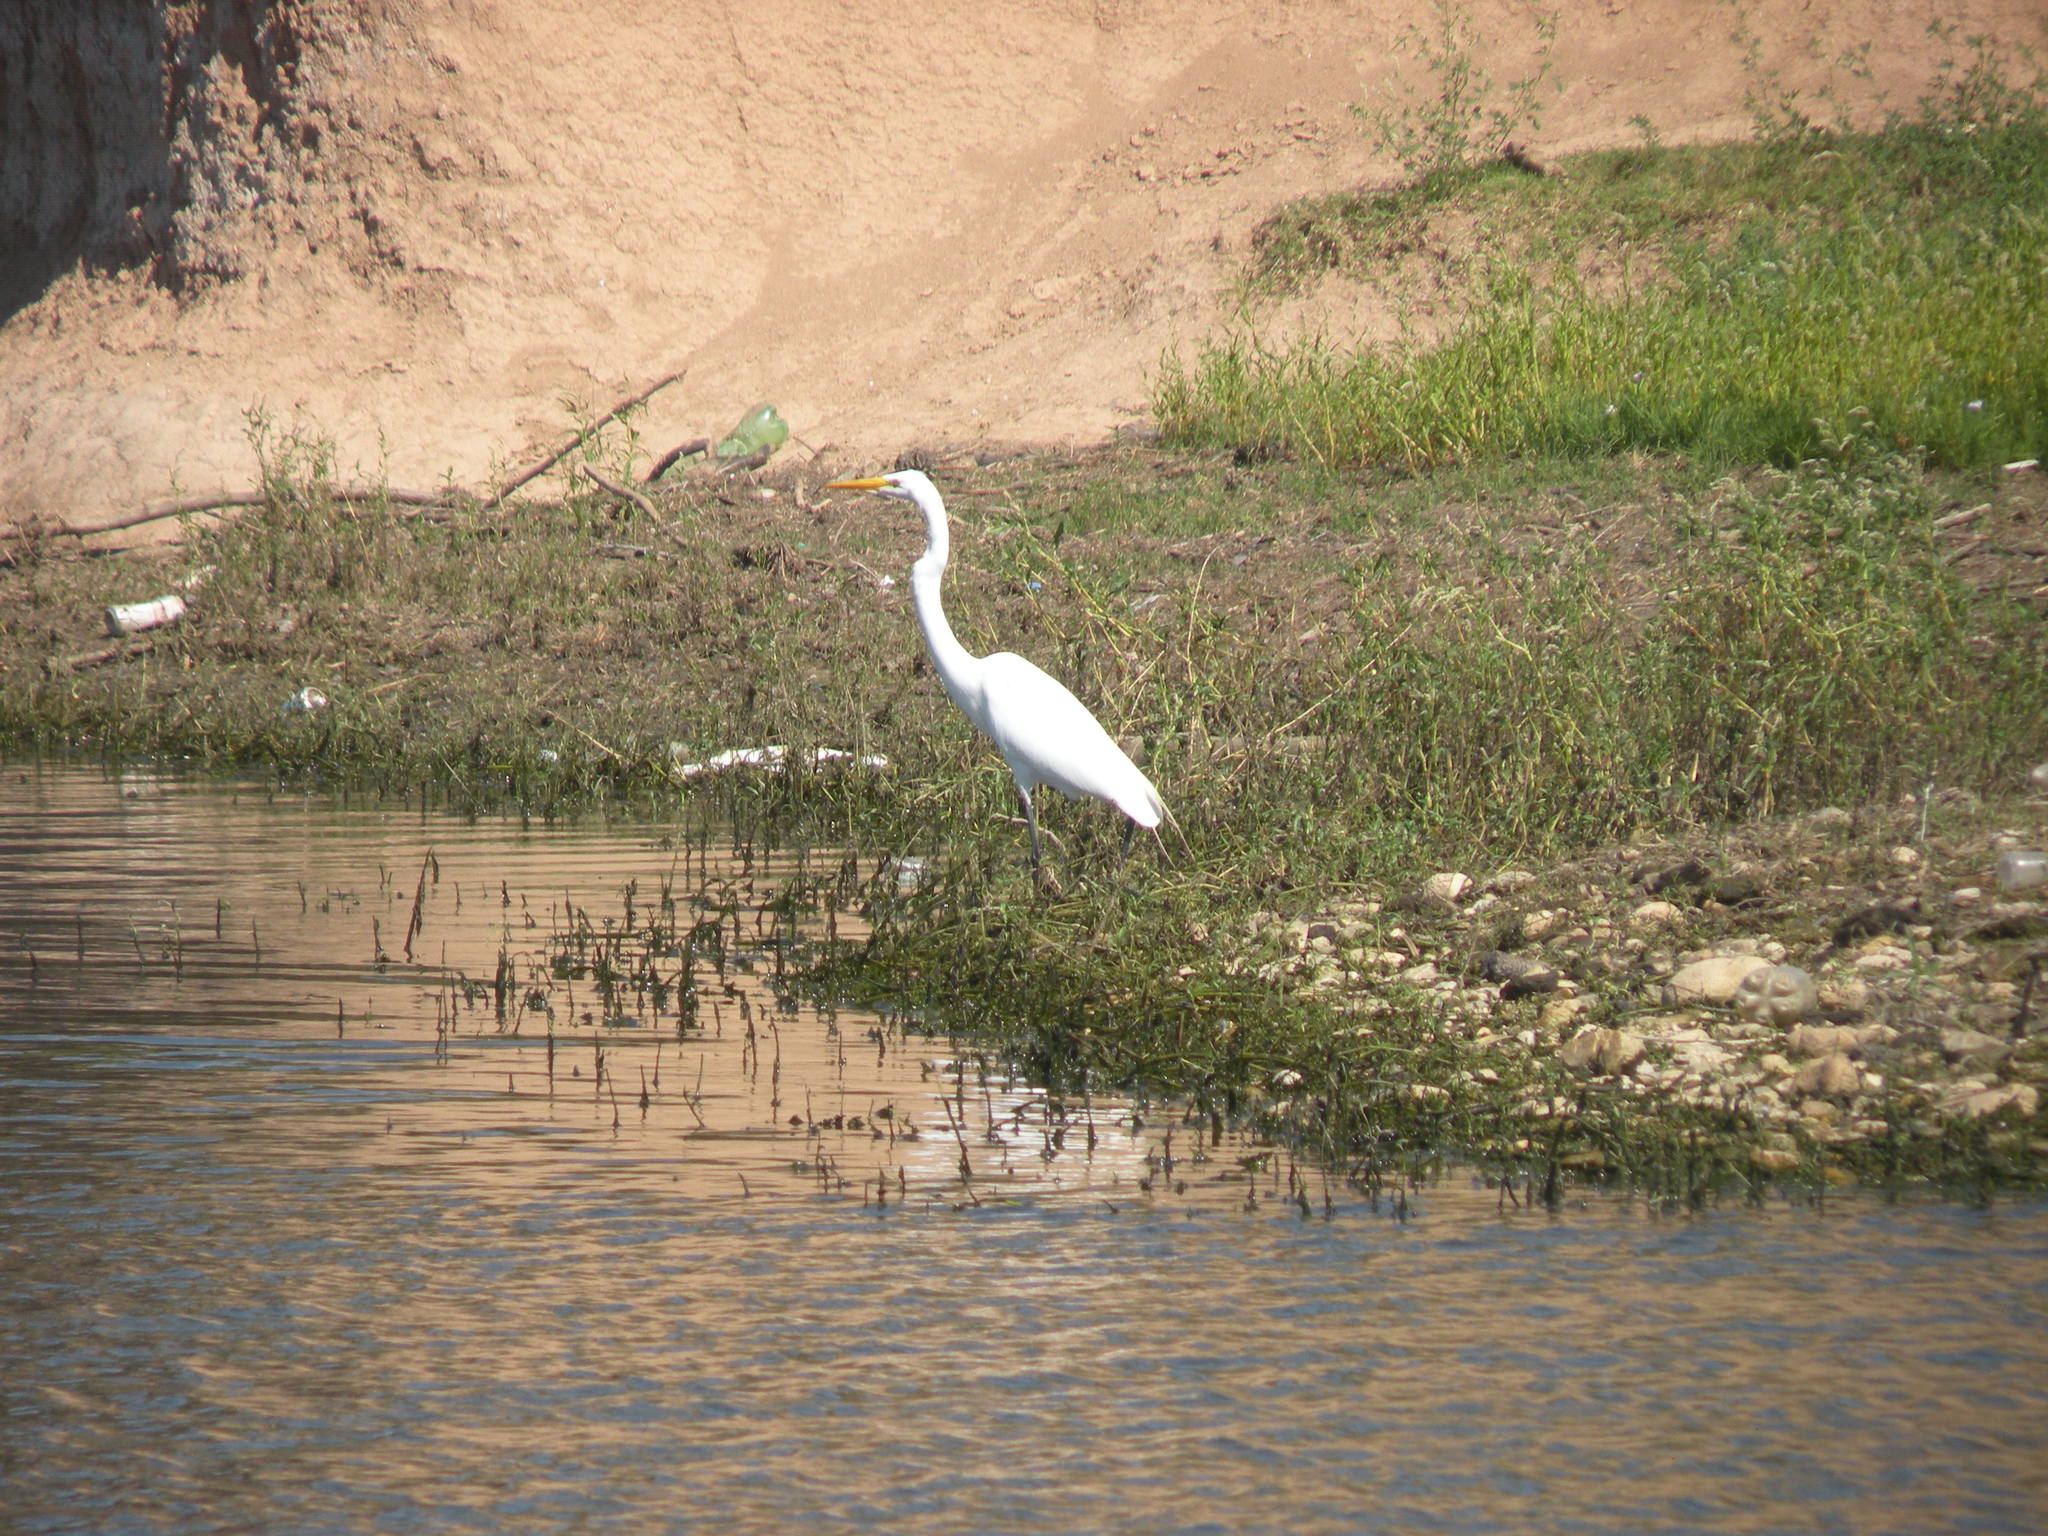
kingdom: Animalia
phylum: Chordata
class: Aves
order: Pelecaniformes
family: Ardeidae
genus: Ardea
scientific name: Ardea alba
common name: Great egret
